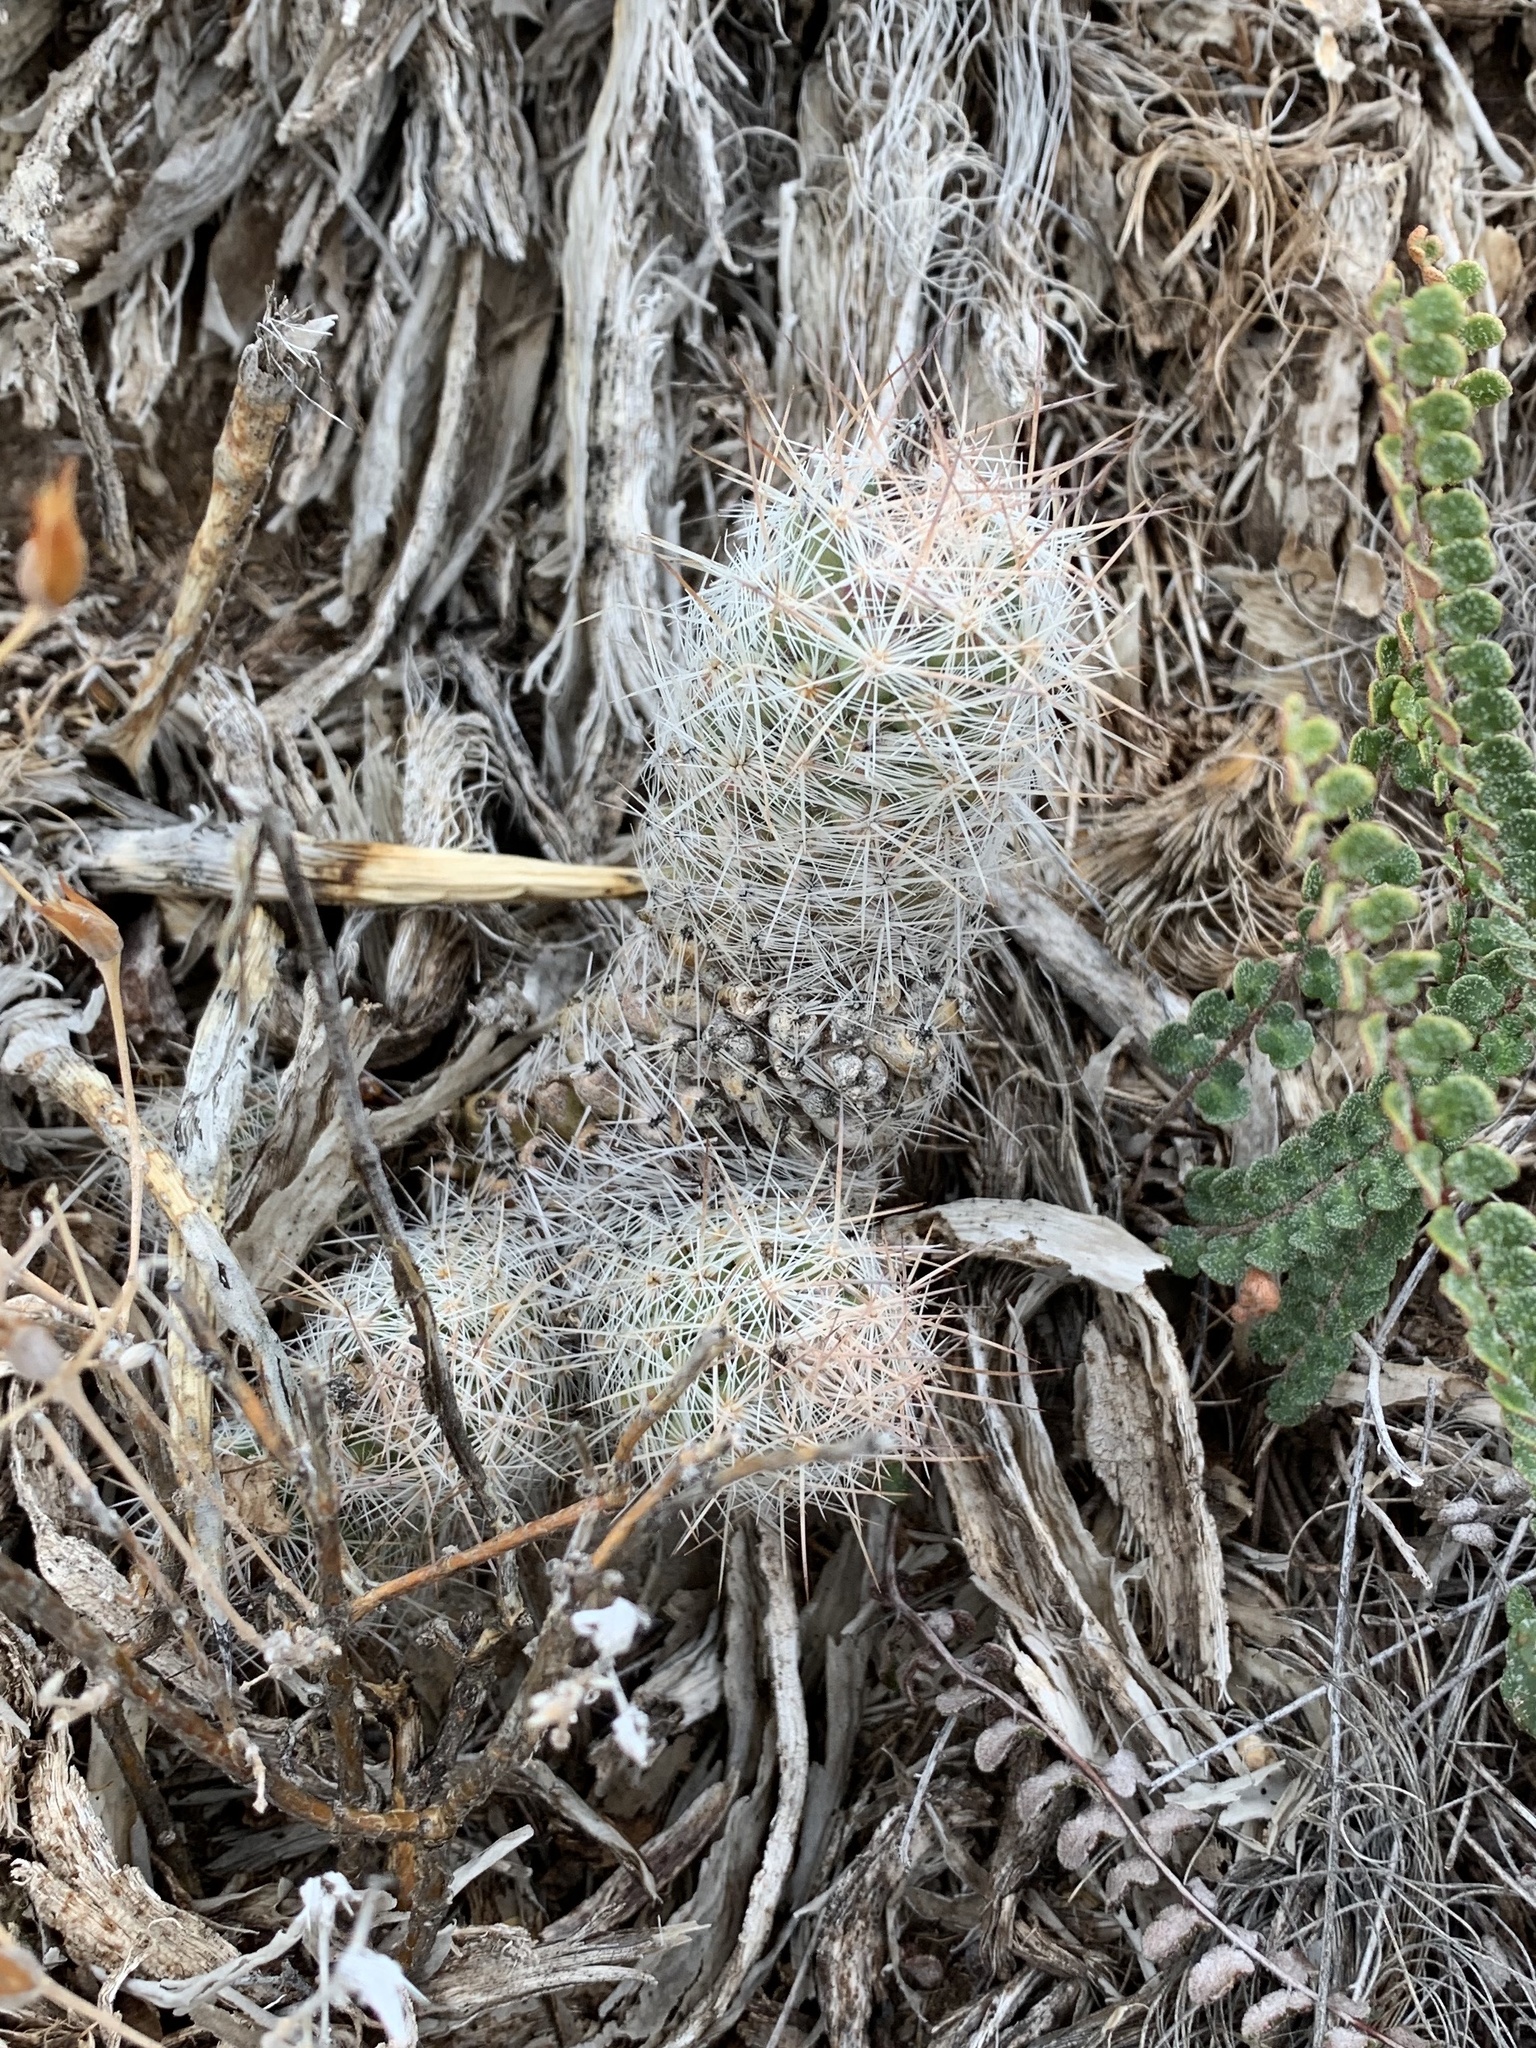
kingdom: Plantae
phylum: Tracheophyta
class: Magnoliopsida
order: Caryophyllales
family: Cactaceae
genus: Pelecyphora
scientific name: Pelecyphora tuberculosa
